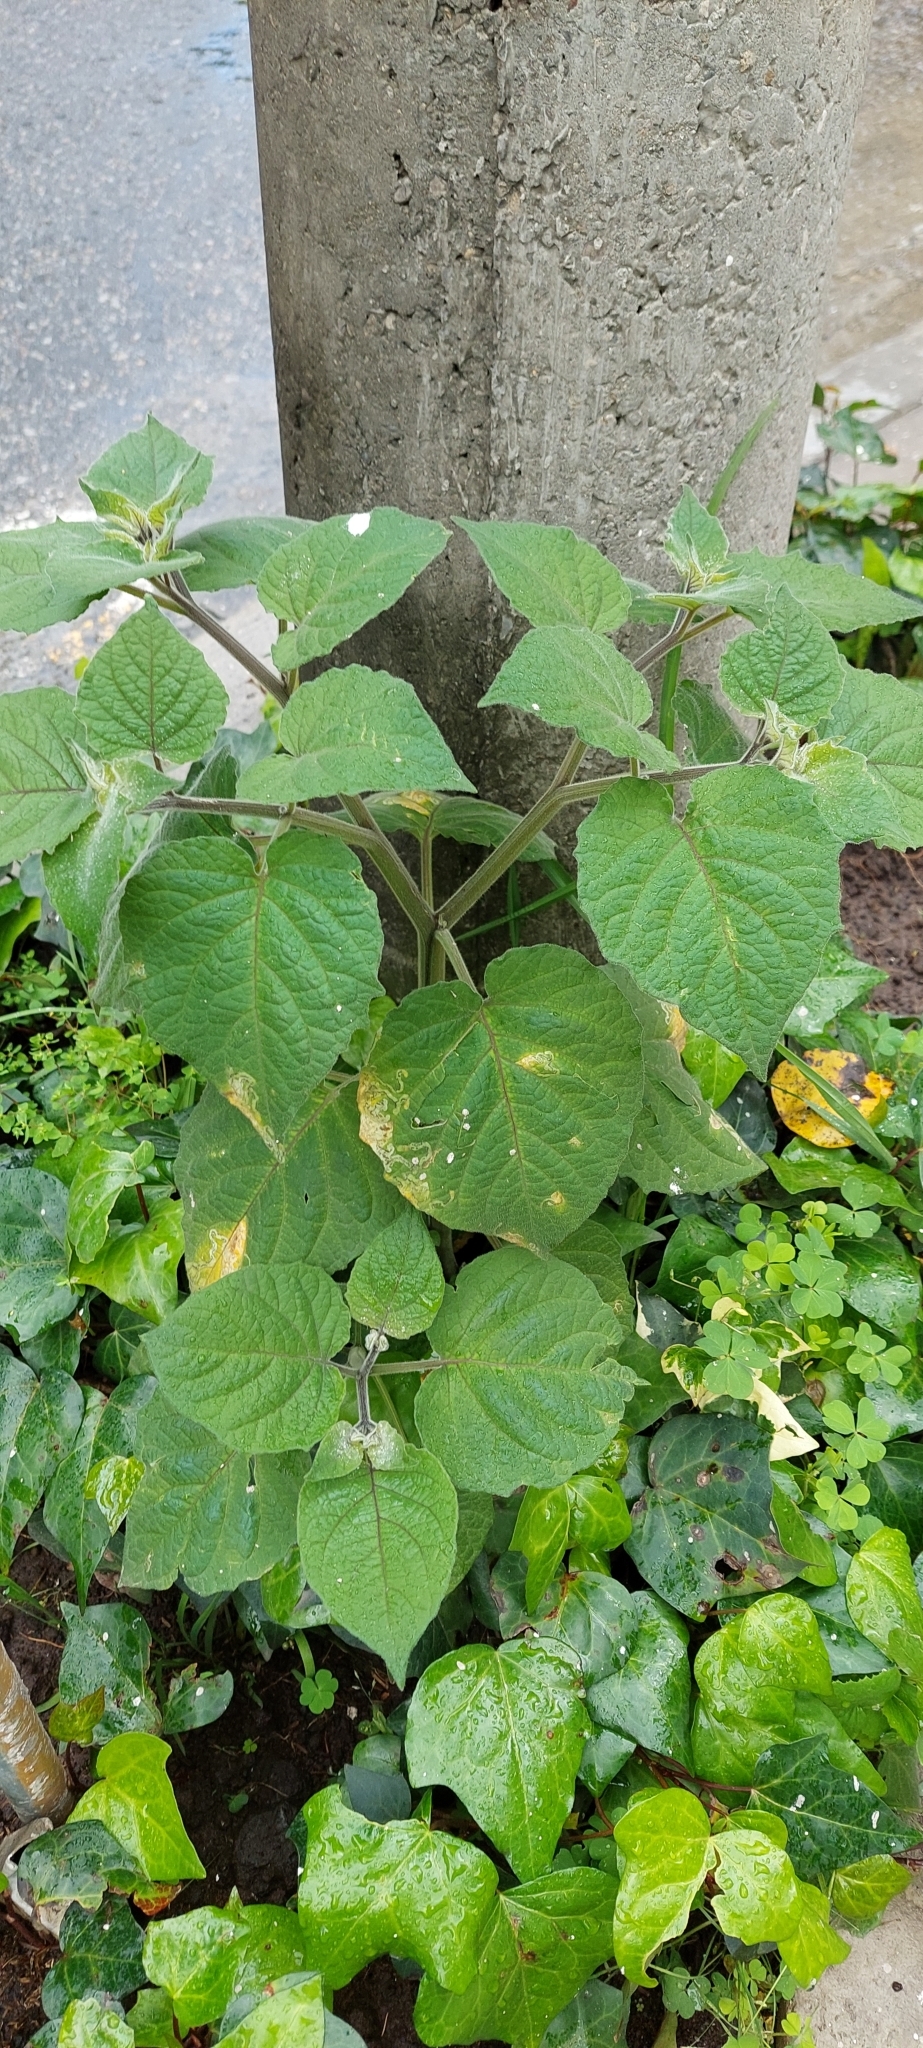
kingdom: Plantae
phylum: Tracheophyta
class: Magnoliopsida
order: Solanales
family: Solanaceae
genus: Physalis
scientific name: Physalis peruviana
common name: Cape-gooseberry
